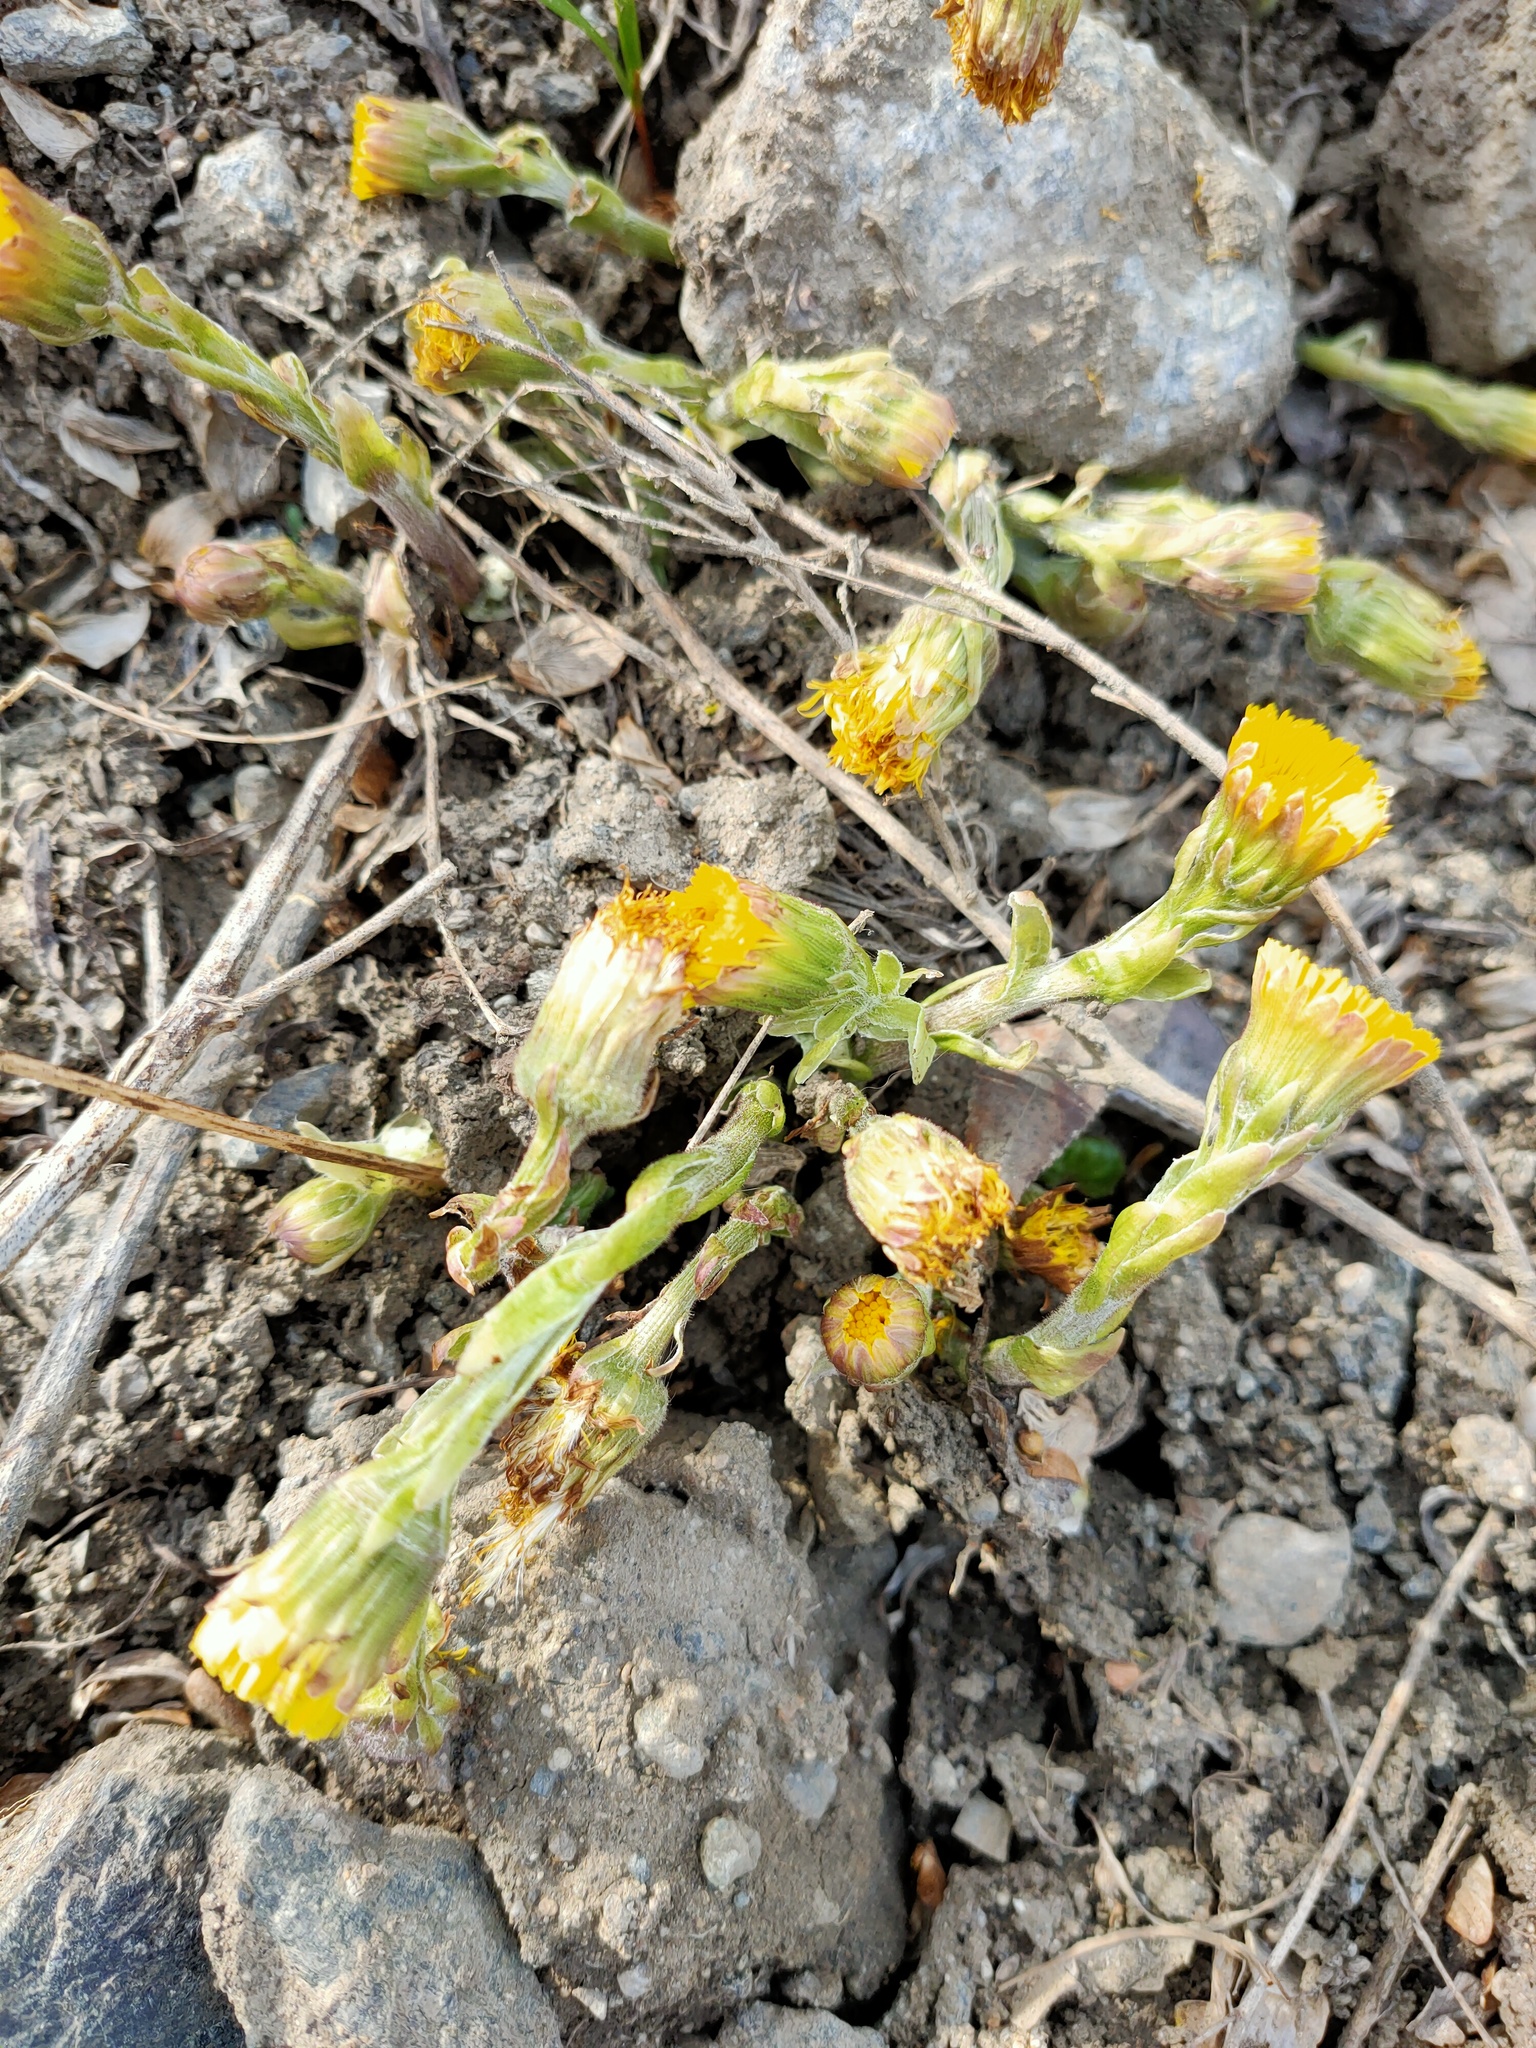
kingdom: Plantae
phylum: Tracheophyta
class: Magnoliopsida
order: Asterales
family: Asteraceae
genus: Tussilago
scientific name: Tussilago farfara
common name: Coltsfoot
